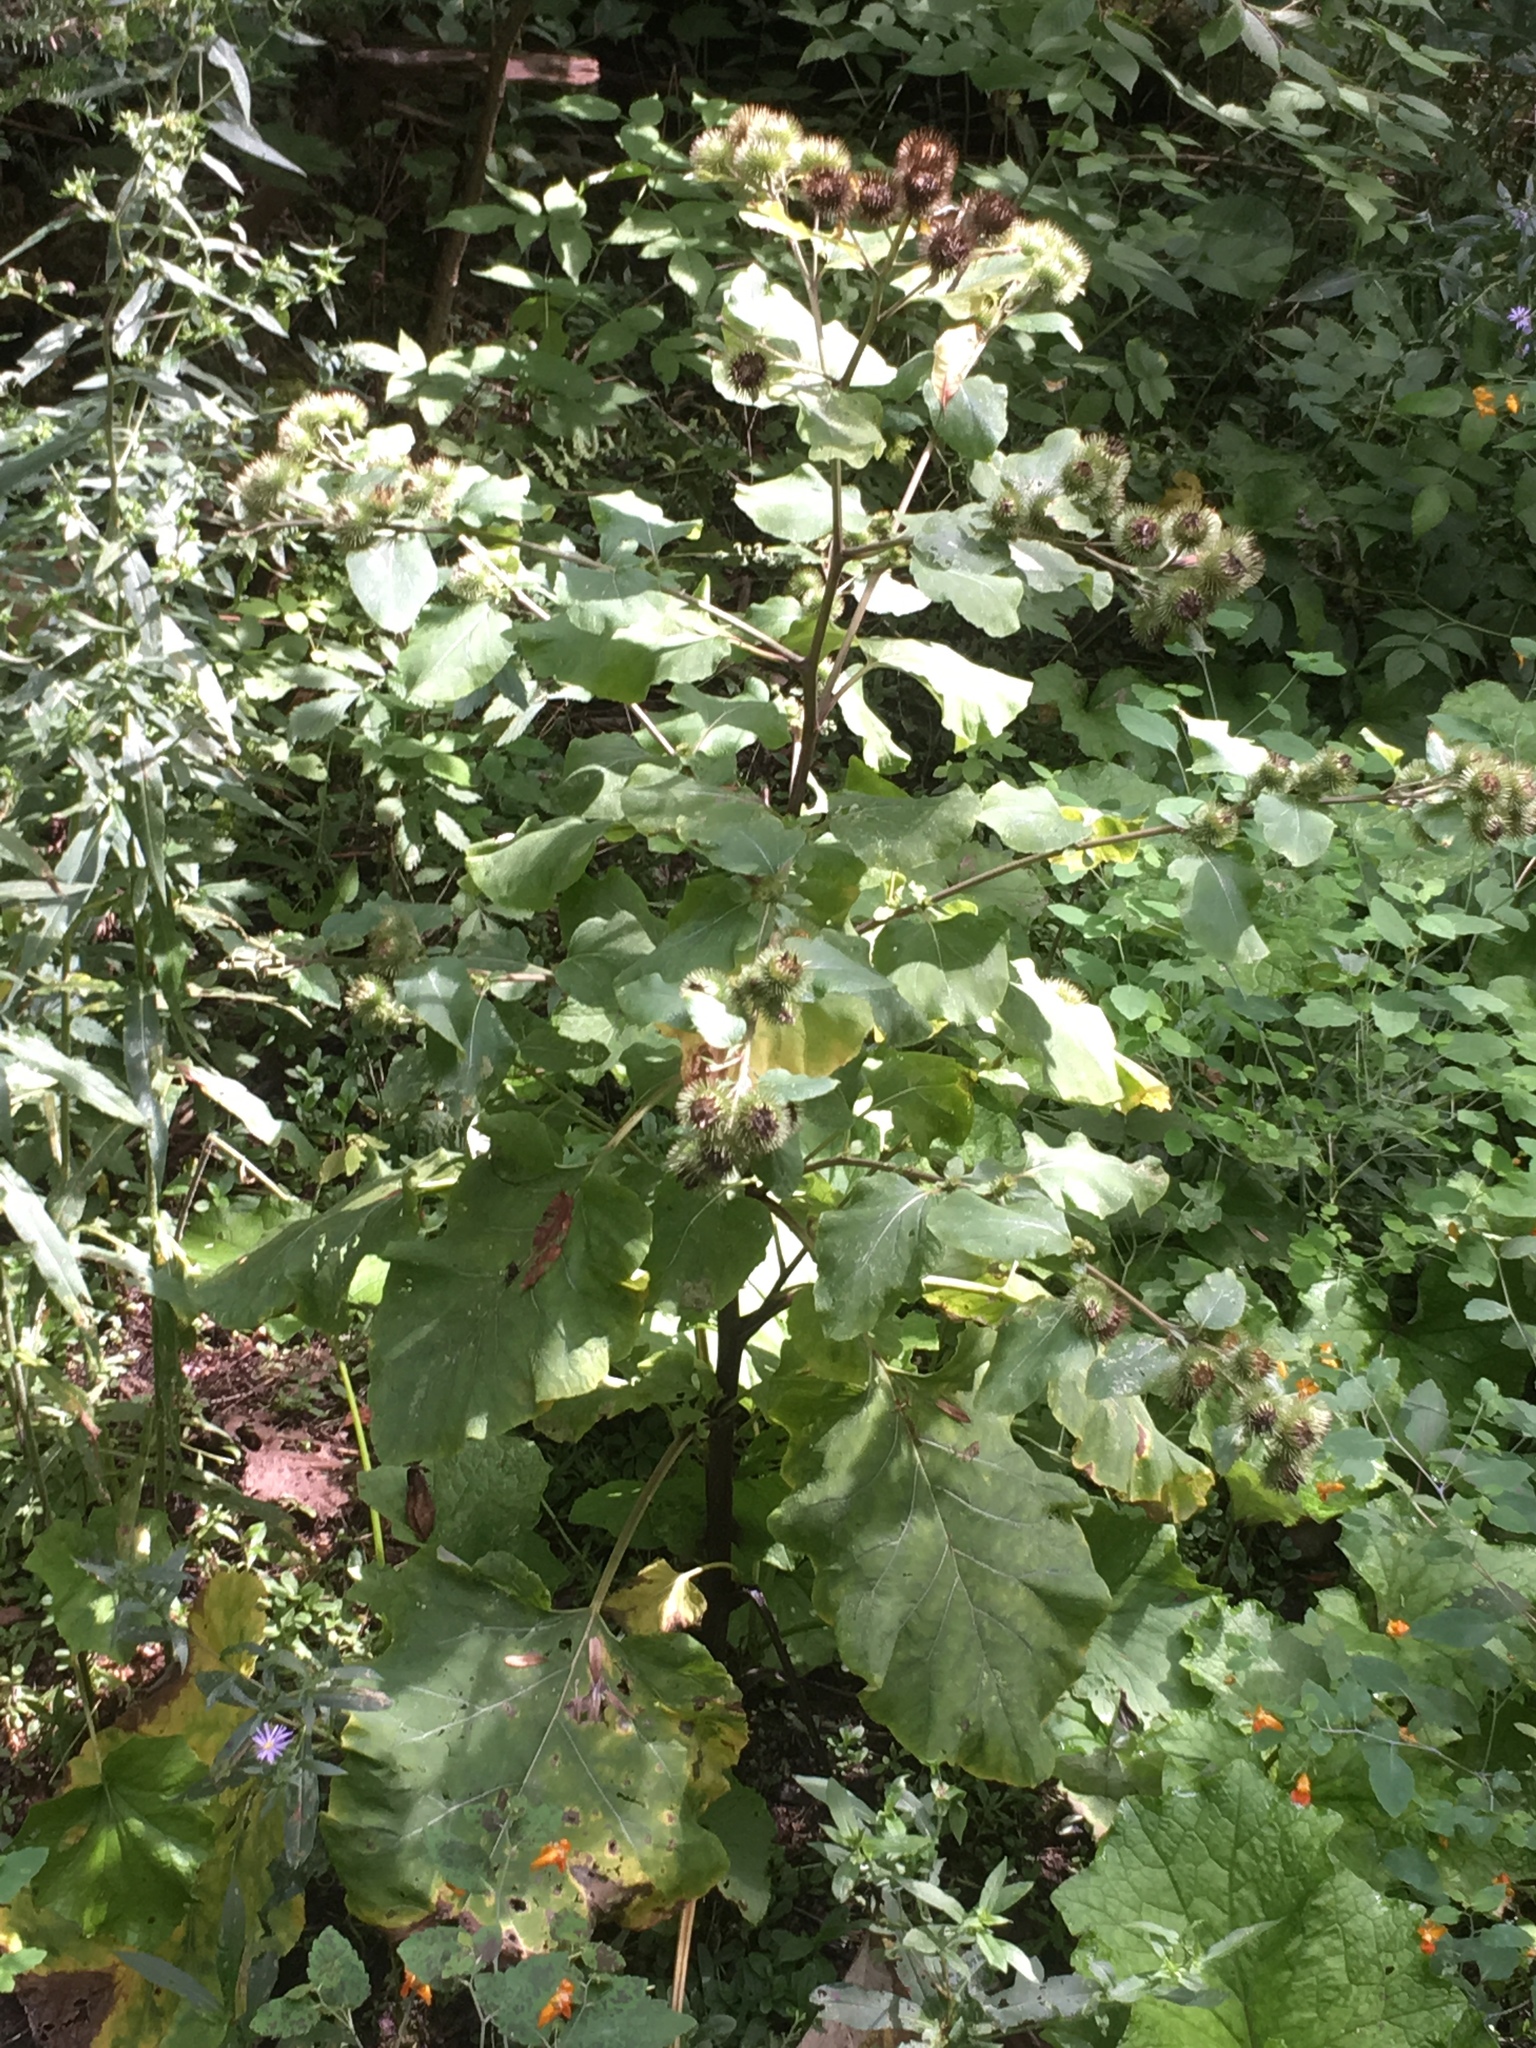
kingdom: Plantae
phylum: Tracheophyta
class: Magnoliopsida
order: Asterales
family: Asteraceae
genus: Arctium
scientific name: Arctium lappa
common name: Greater burdock
